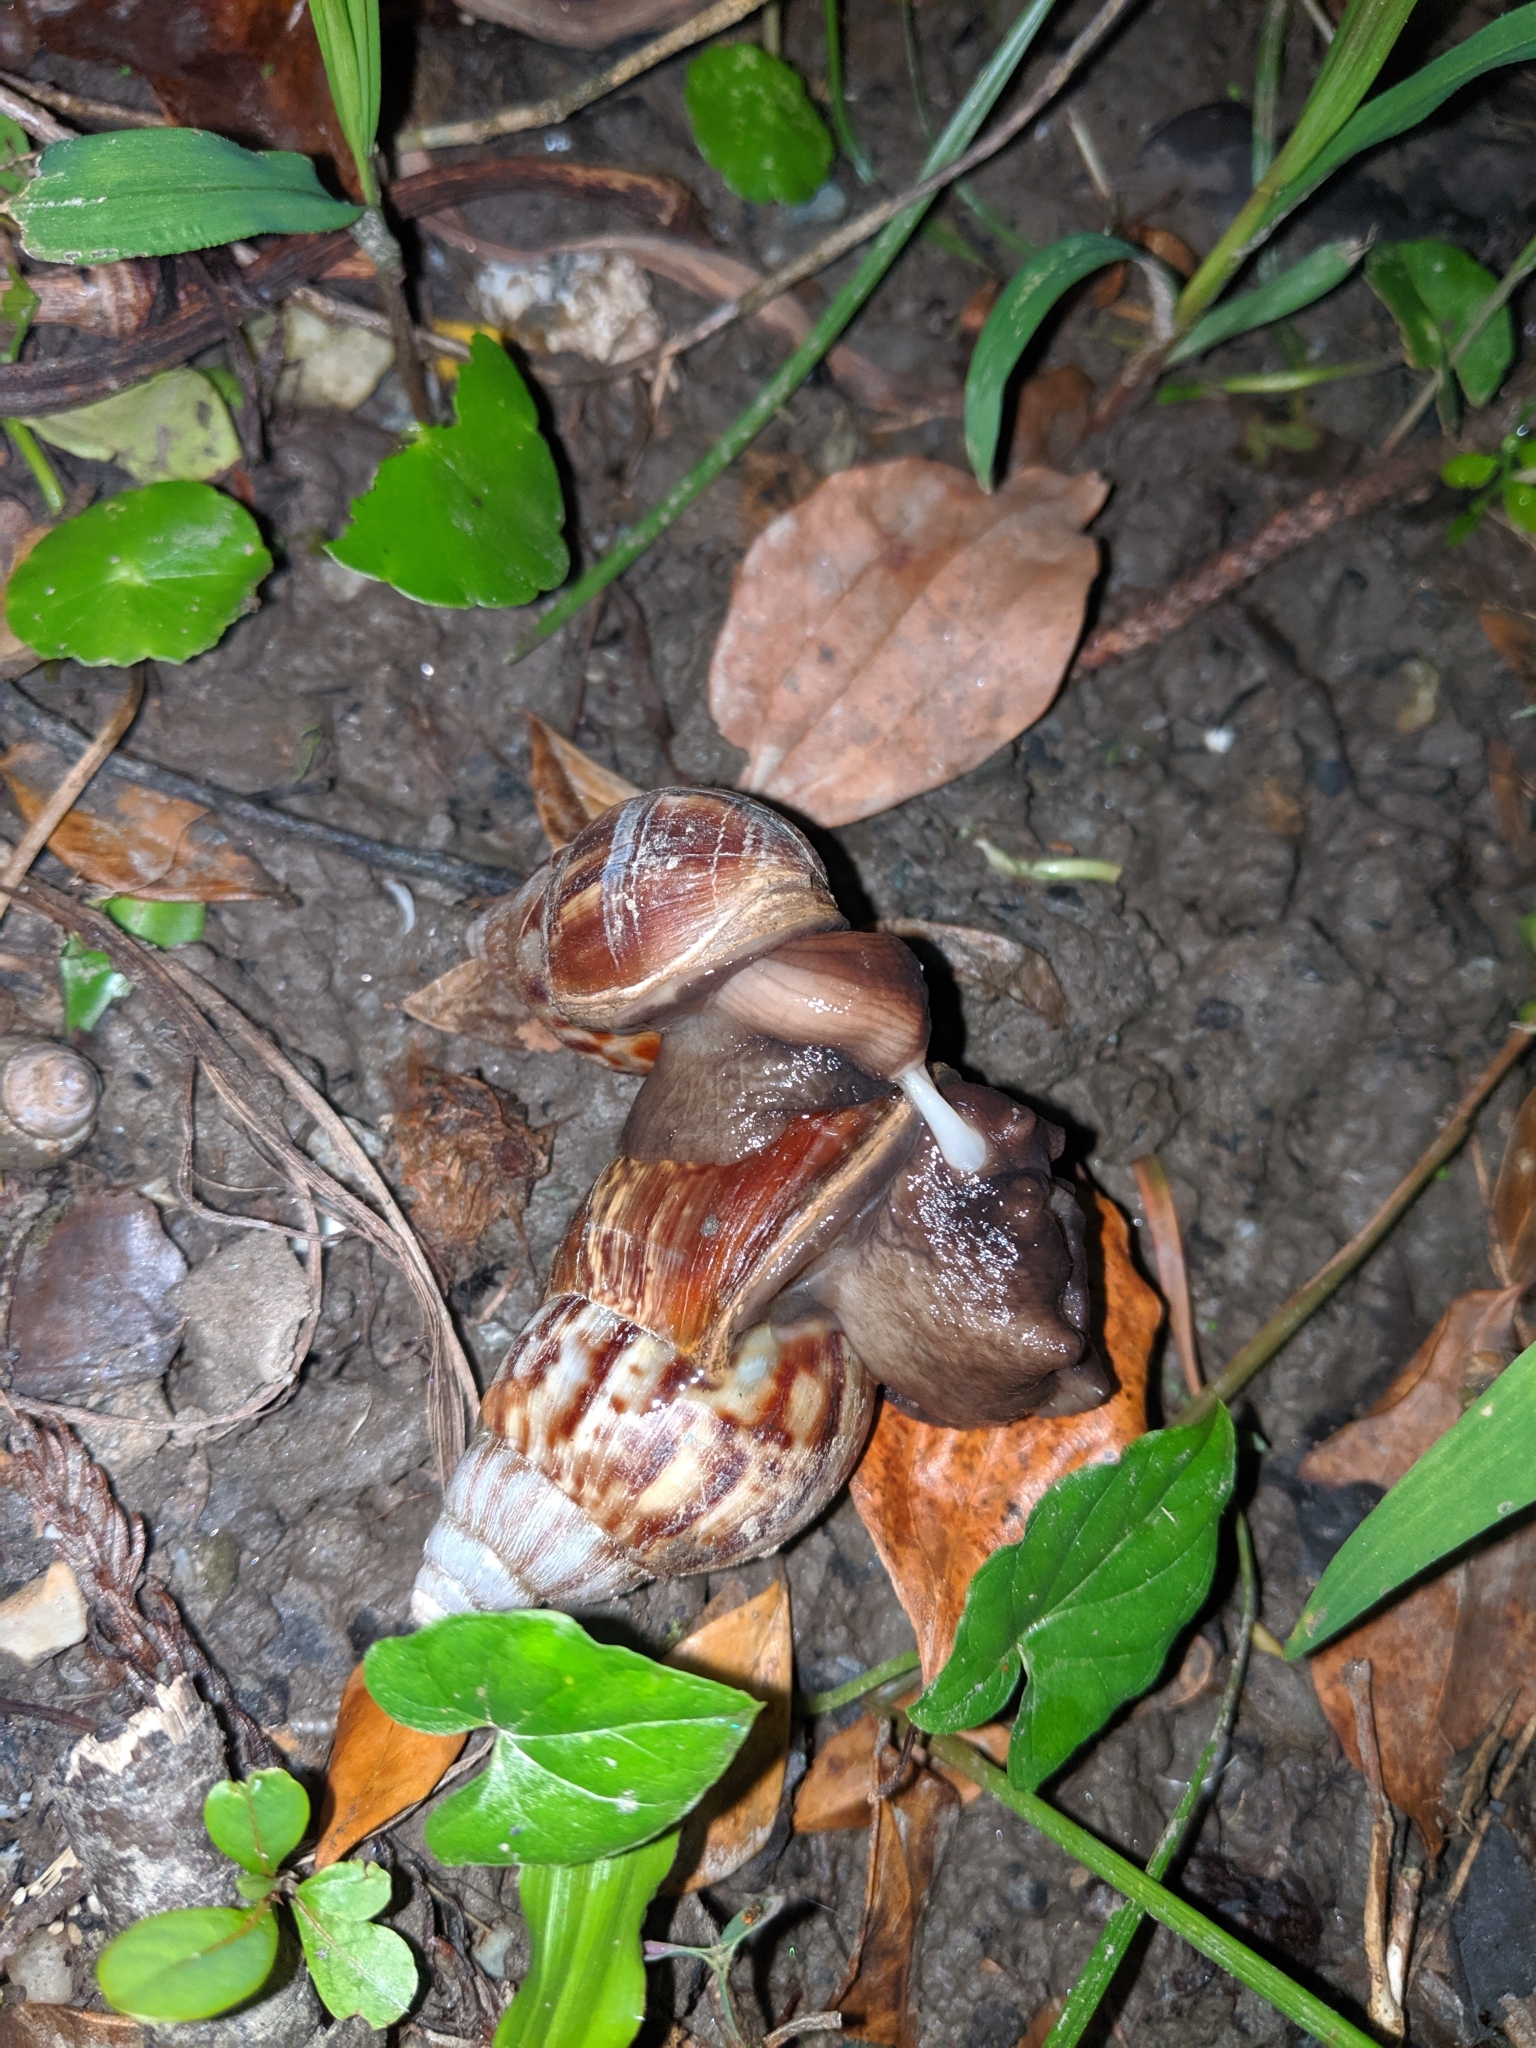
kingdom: Animalia
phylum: Mollusca
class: Gastropoda
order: Stylommatophora
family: Achatinidae
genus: Lissachatina
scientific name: Lissachatina fulica
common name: Giant african snail
